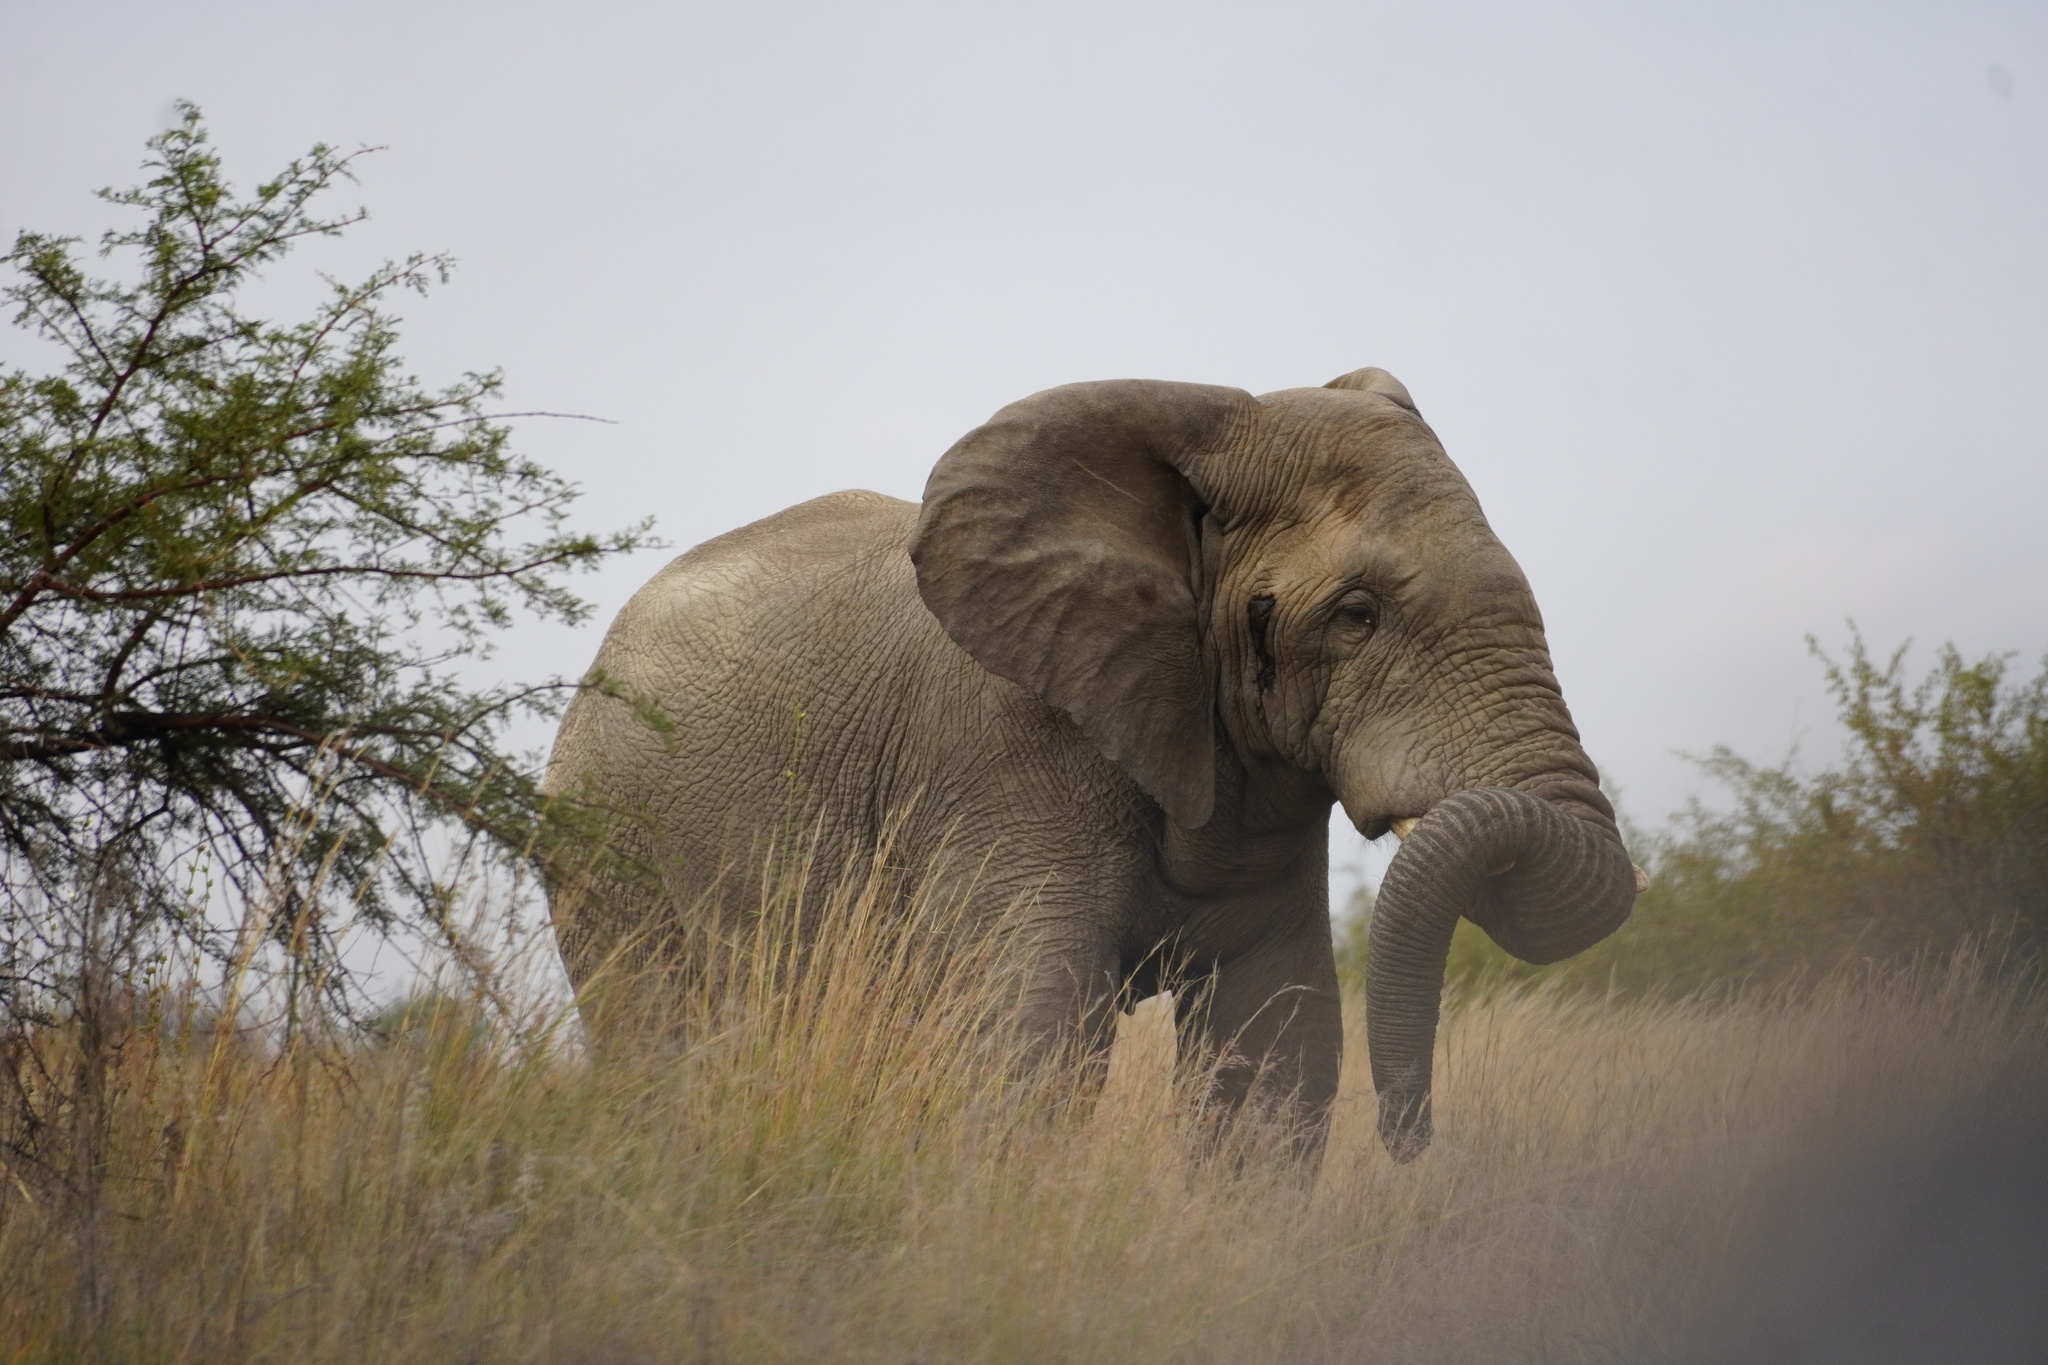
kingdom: Animalia
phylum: Chordata
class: Mammalia
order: Proboscidea
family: Elephantidae
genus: Loxodonta
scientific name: Loxodonta africana
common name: African elephant
